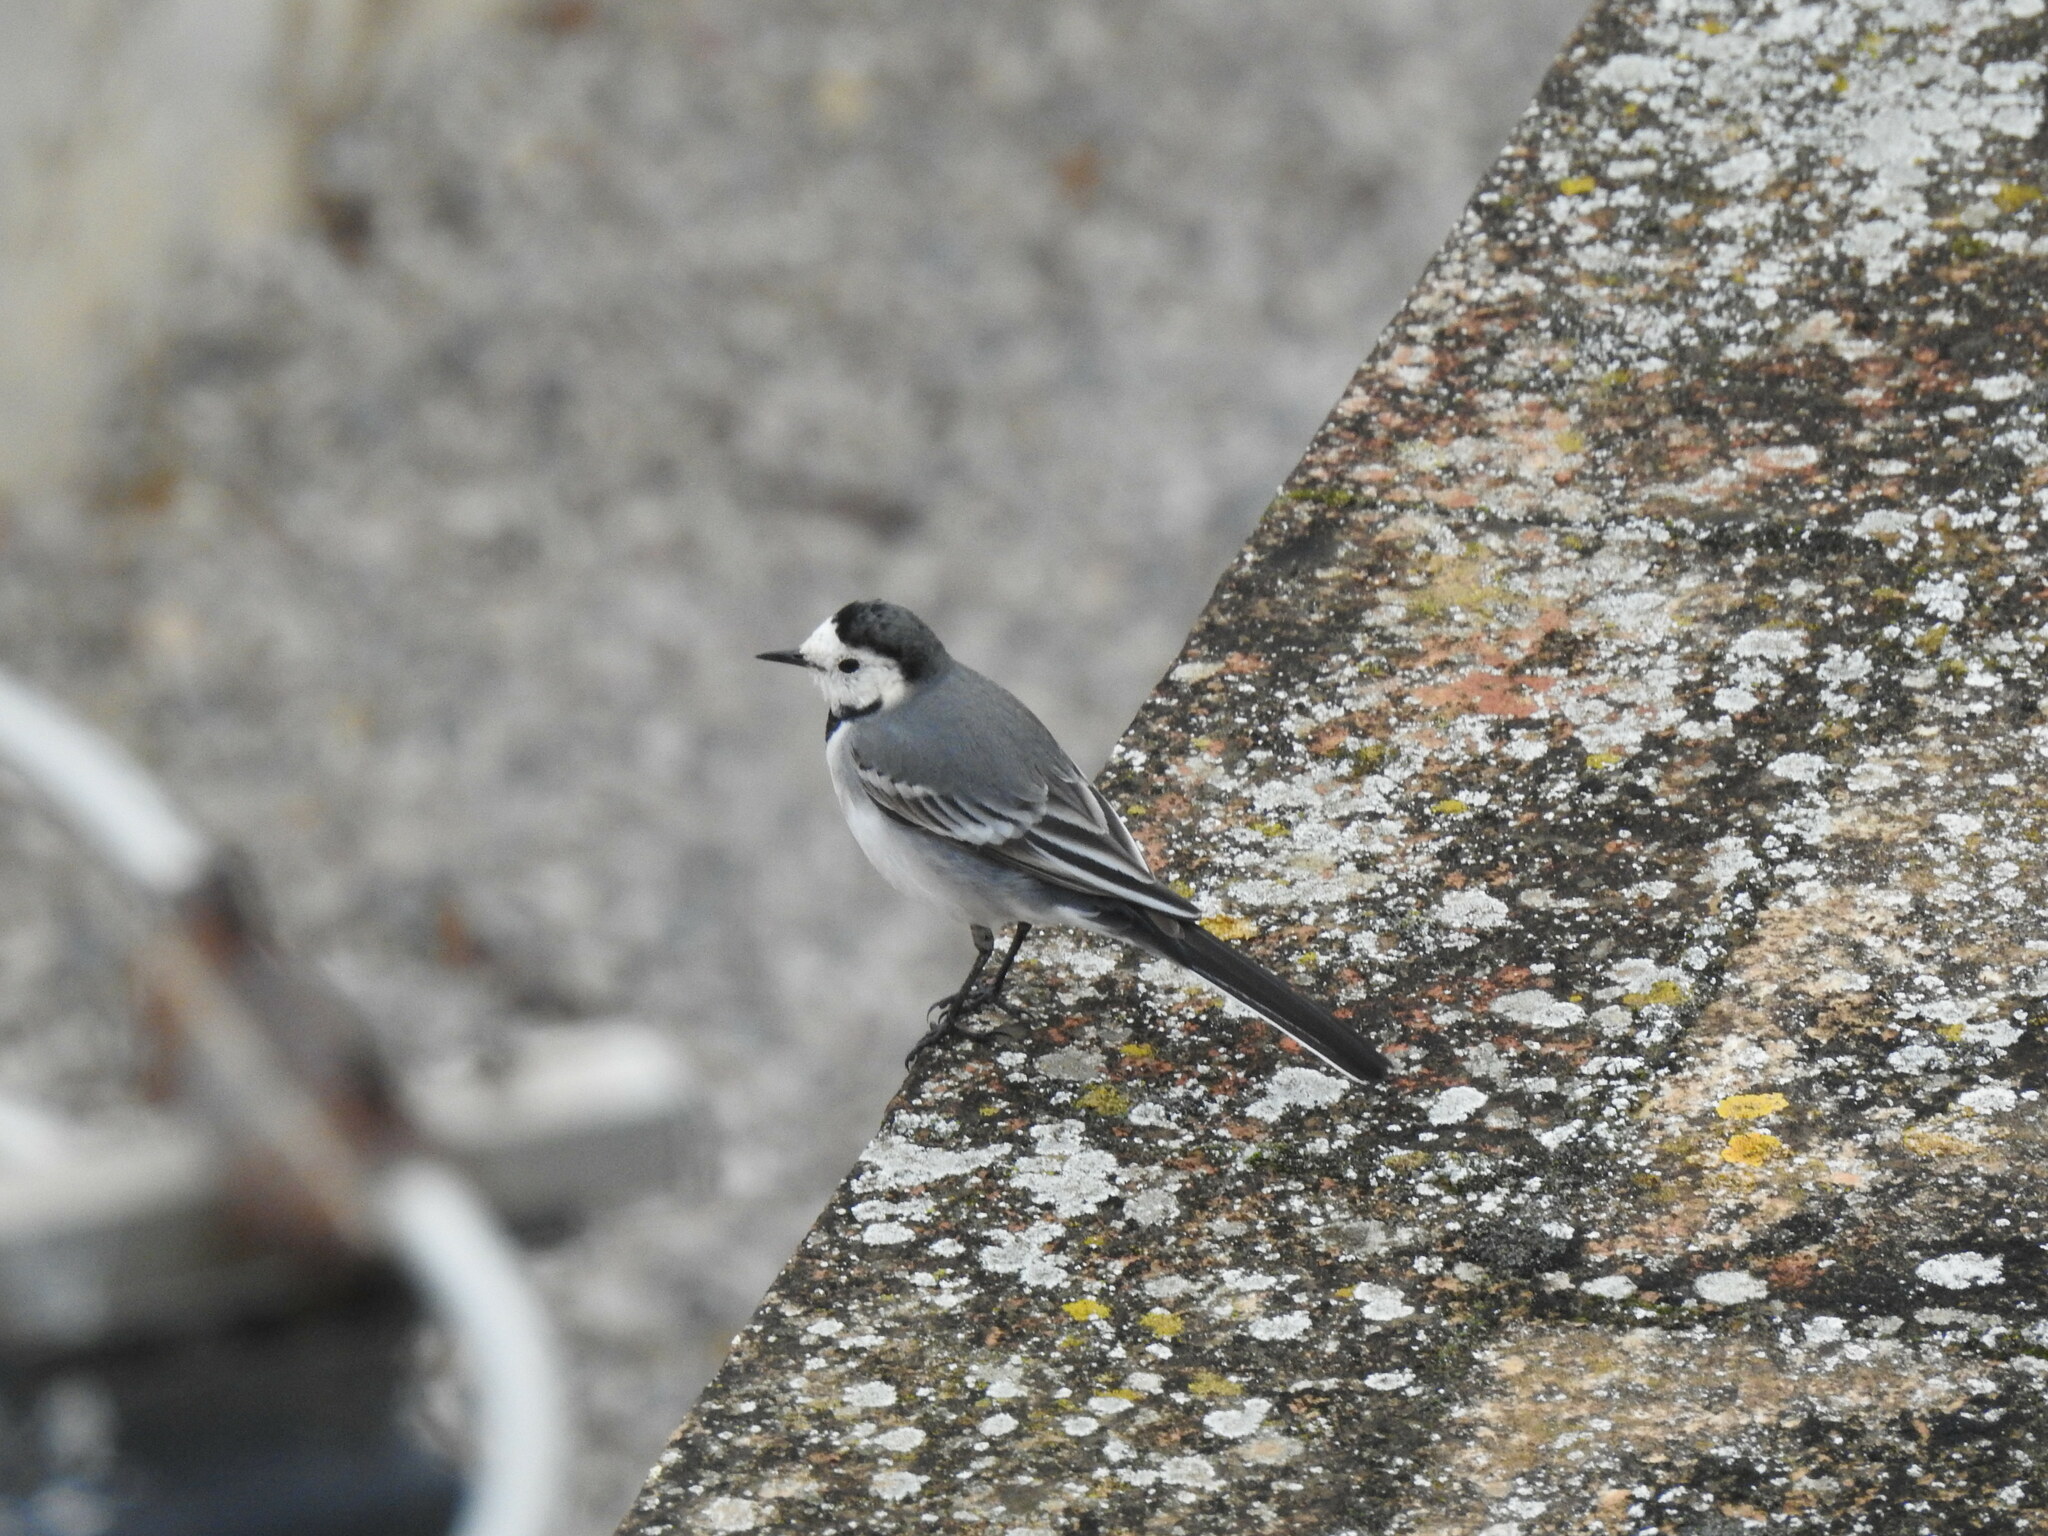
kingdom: Animalia
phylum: Chordata
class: Aves
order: Passeriformes
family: Motacillidae
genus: Motacilla
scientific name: Motacilla alba
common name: White wagtail
